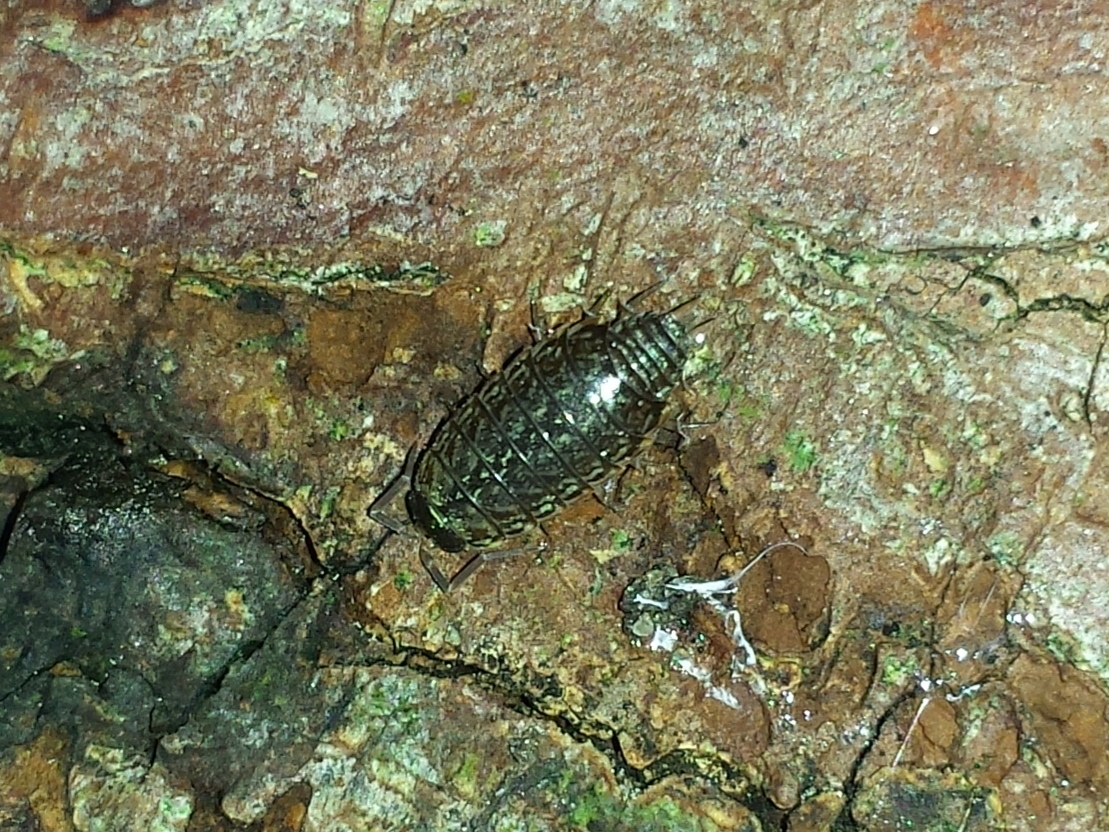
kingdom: Animalia
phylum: Arthropoda
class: Malacostraca
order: Isopoda
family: Philosciidae
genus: Philoscia
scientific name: Philoscia muscorum
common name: Common striped woodlouse
